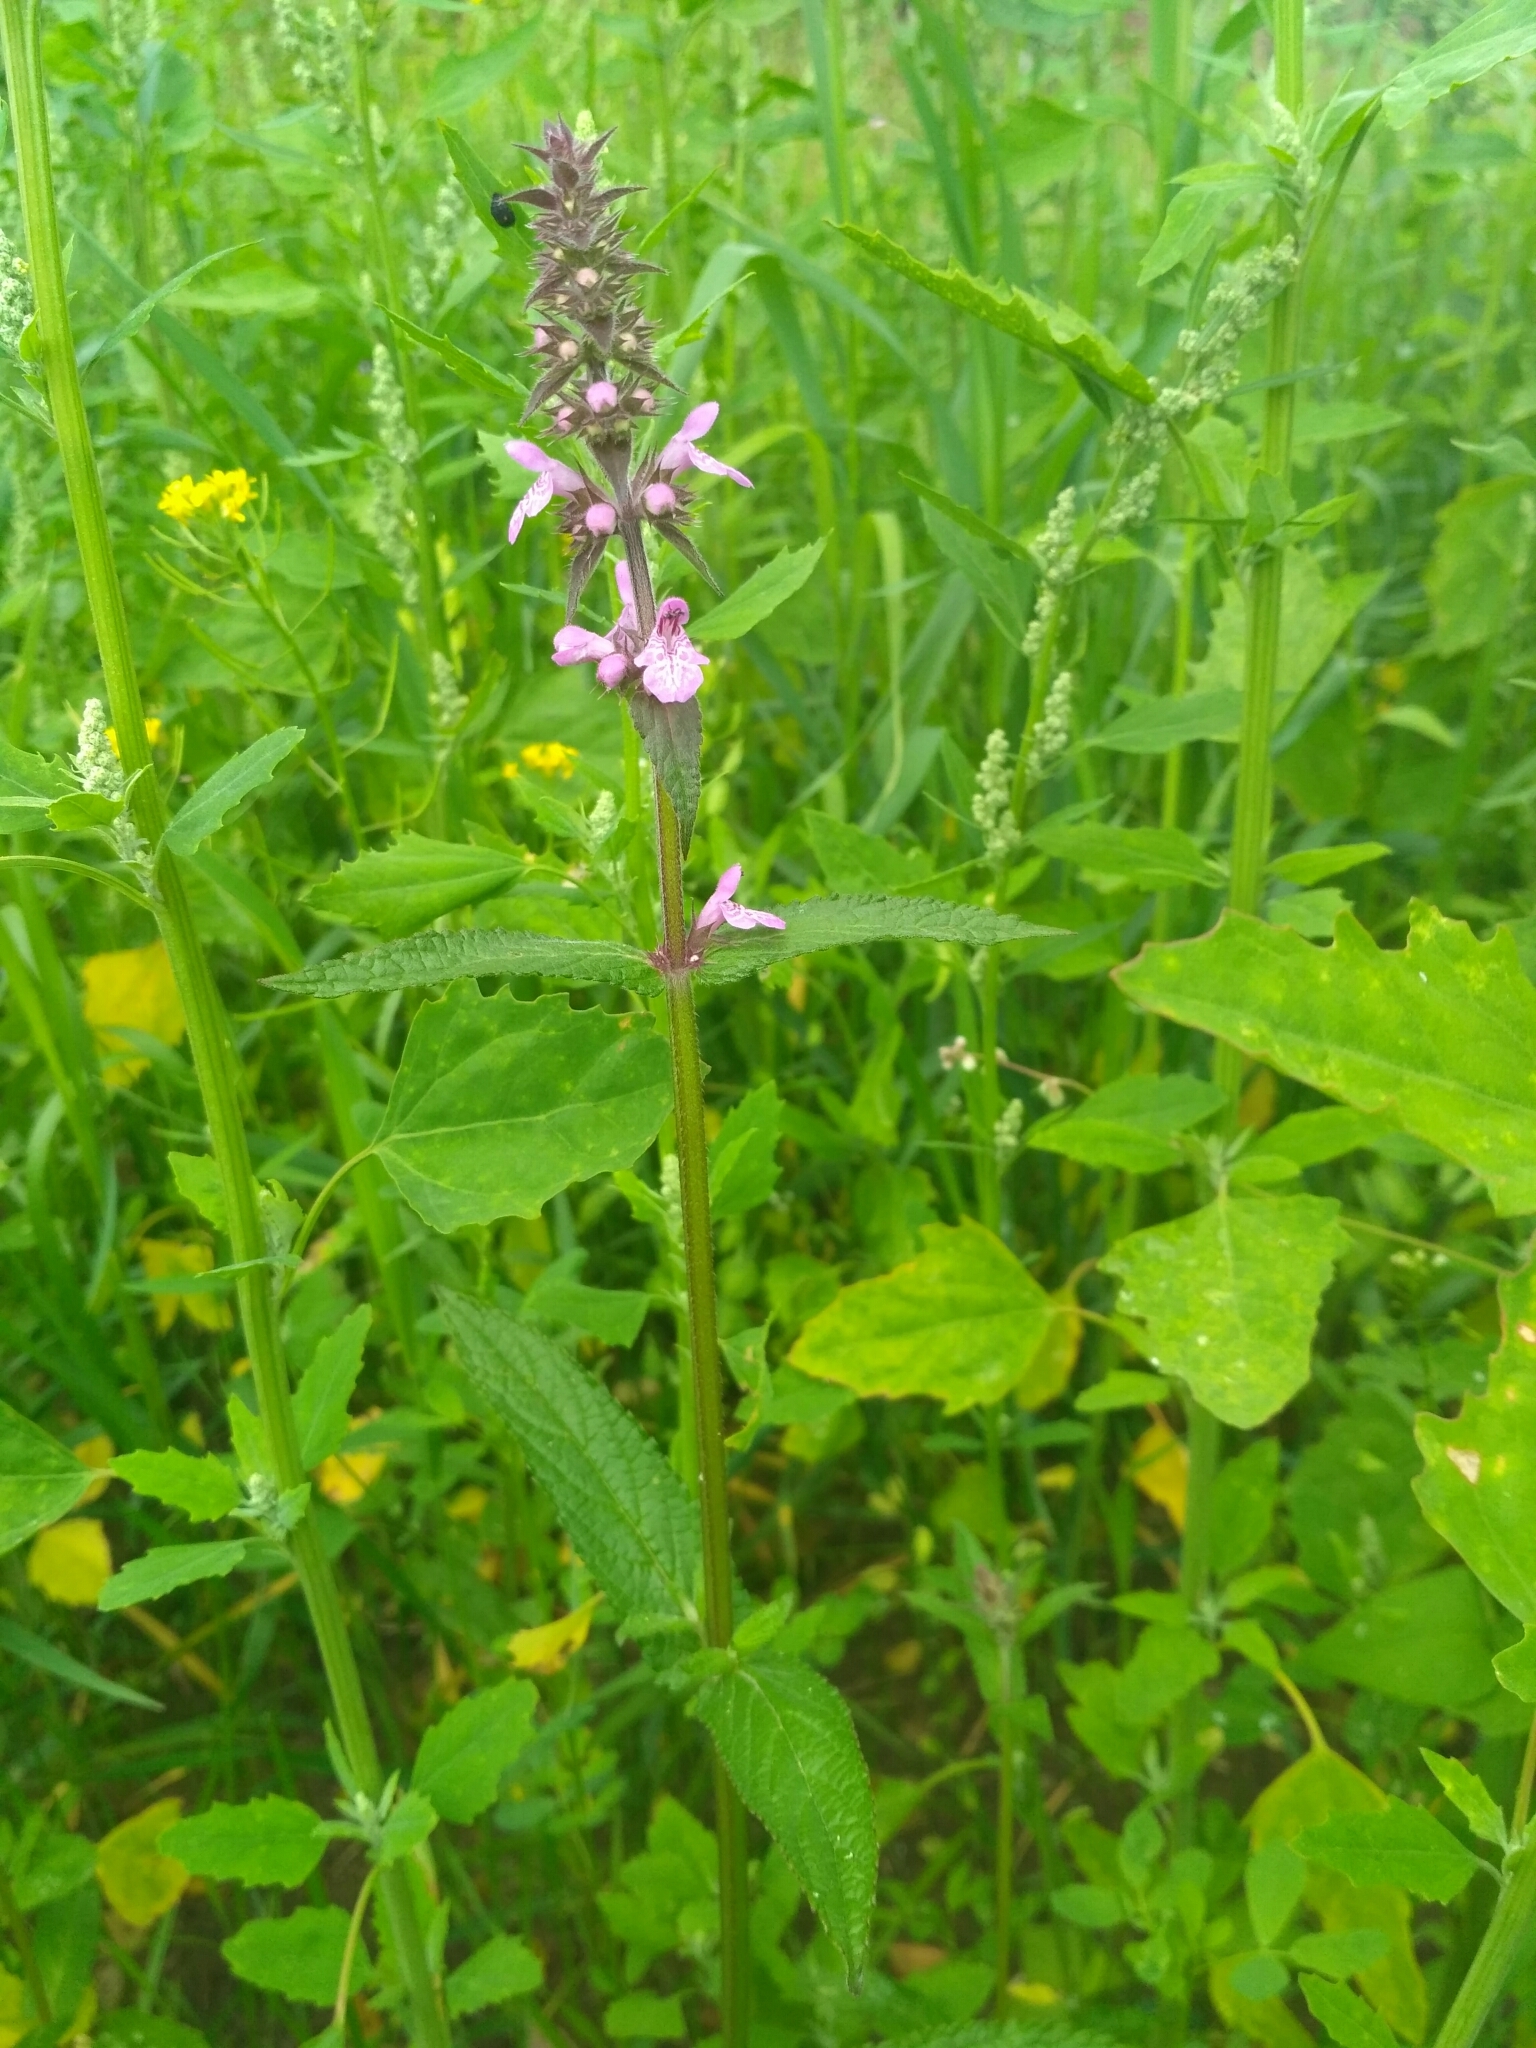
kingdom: Plantae
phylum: Tracheophyta
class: Magnoliopsida
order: Lamiales
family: Lamiaceae
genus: Stachys
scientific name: Stachys palustris
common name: Marsh woundwort
